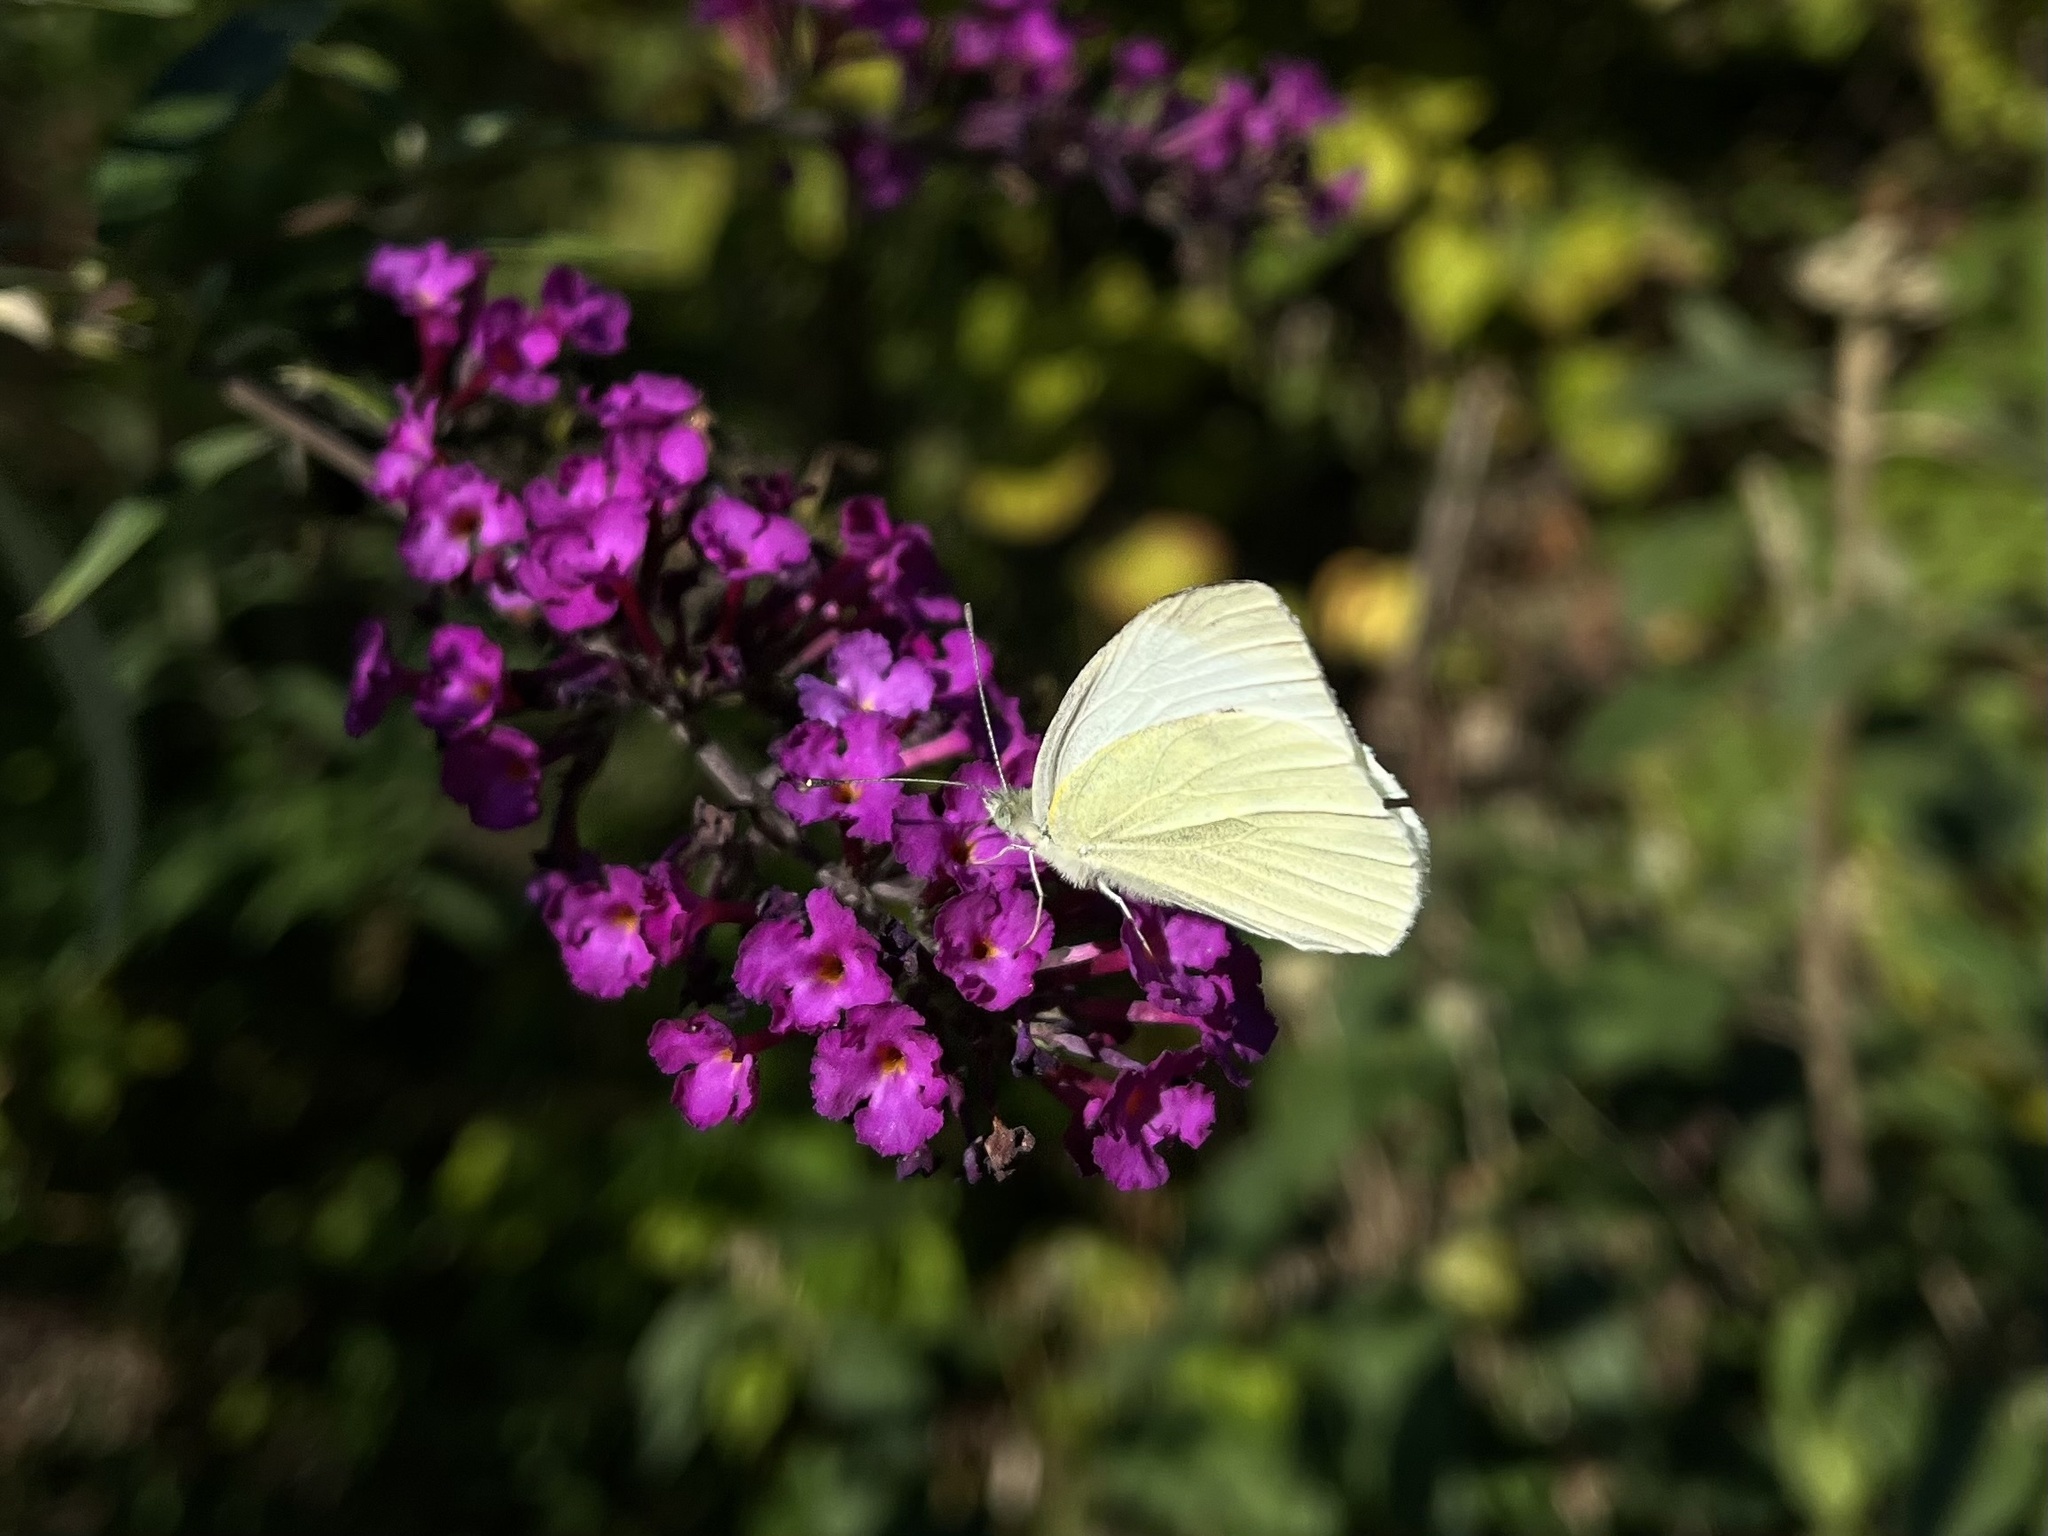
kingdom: Animalia
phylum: Arthropoda
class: Insecta
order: Lepidoptera
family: Pieridae
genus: Pieris
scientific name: Pieris rapae
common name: Small white
